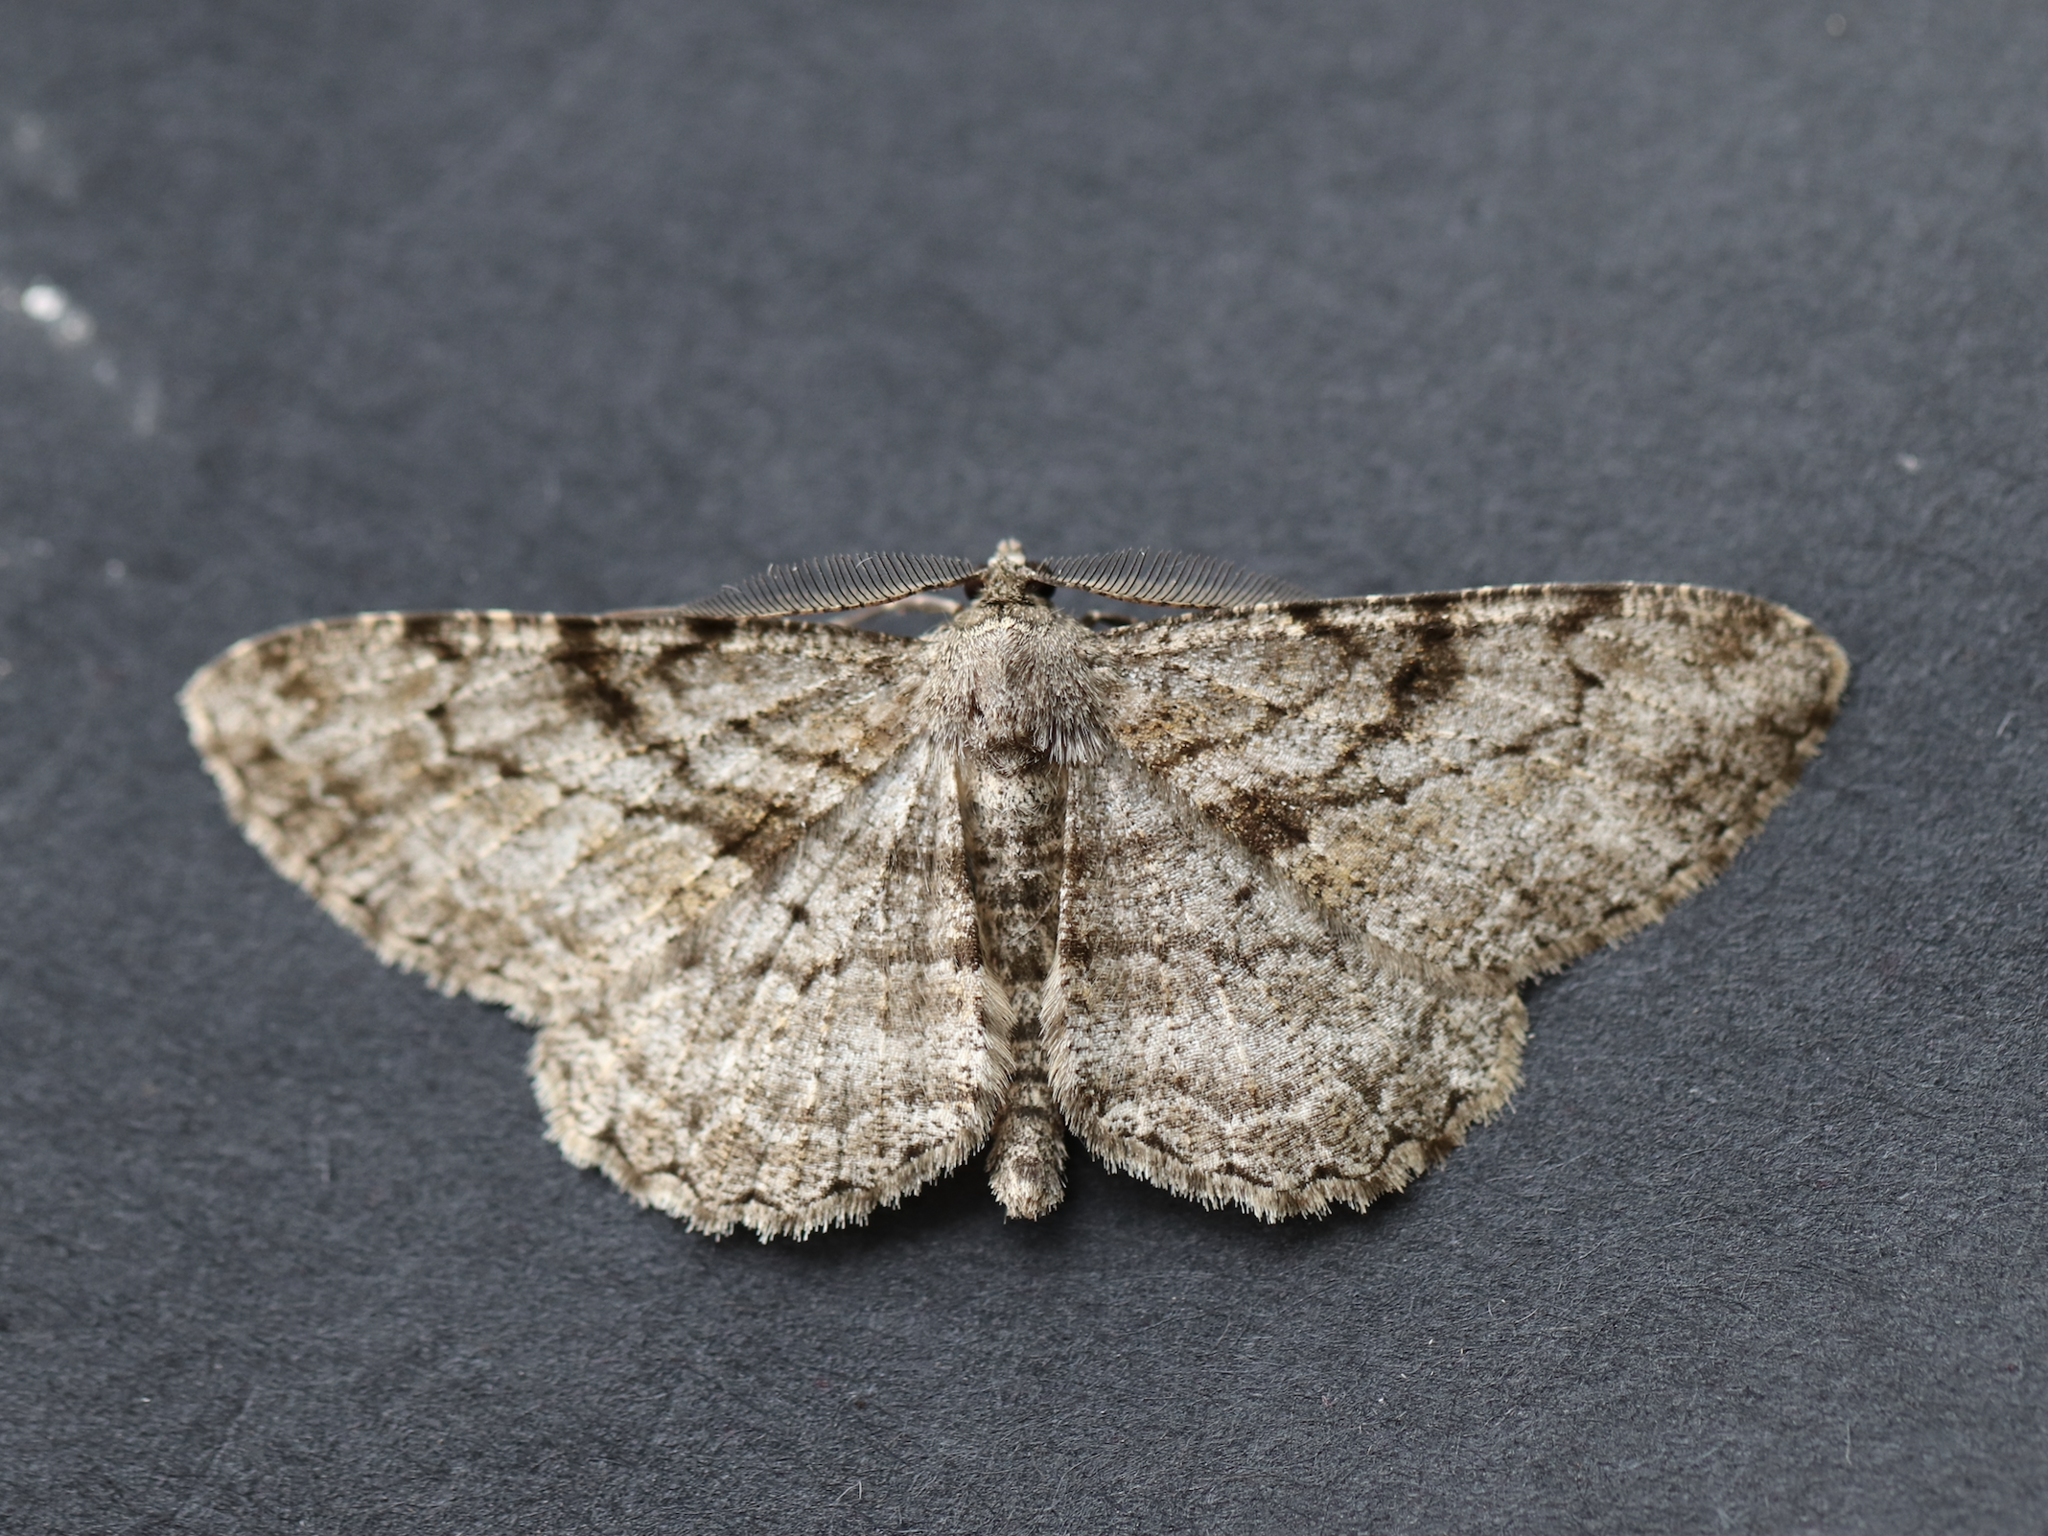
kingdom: Animalia
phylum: Arthropoda
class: Insecta
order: Lepidoptera
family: Geometridae
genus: Peribatodes
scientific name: Peribatodes rhomboidaria
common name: Willow beauty
